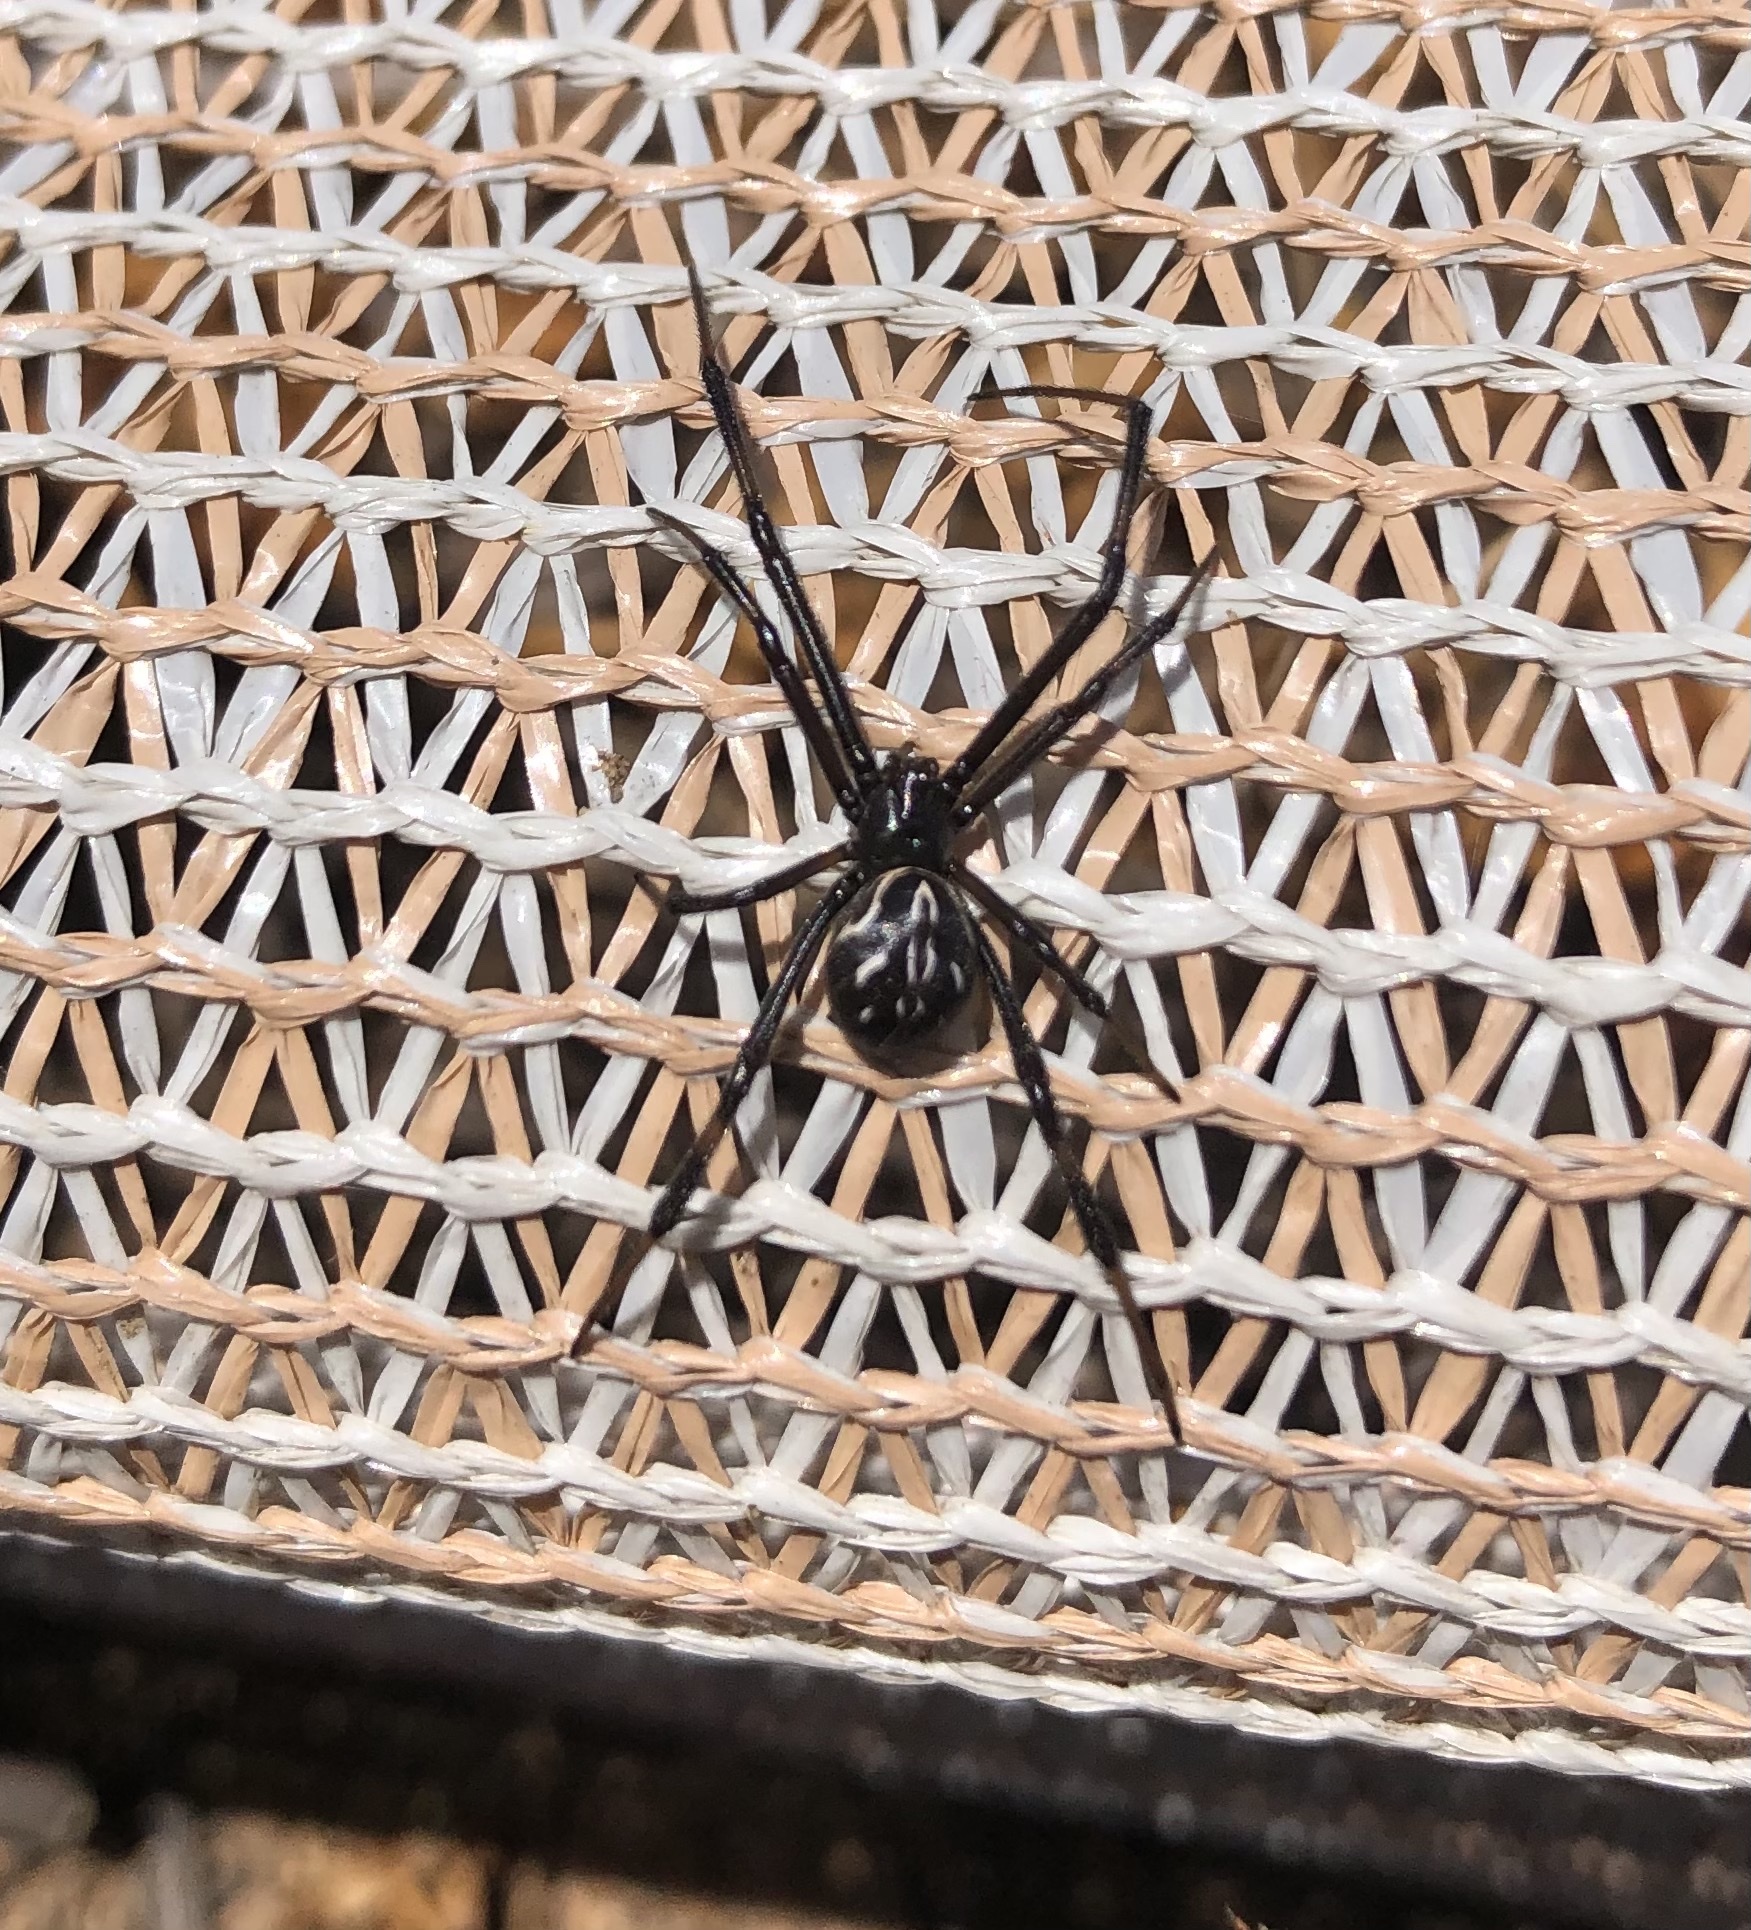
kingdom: Animalia
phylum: Arthropoda
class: Arachnida
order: Araneae
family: Theridiidae
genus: Latrodectus
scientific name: Latrodectus hesperus
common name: Western black widow
